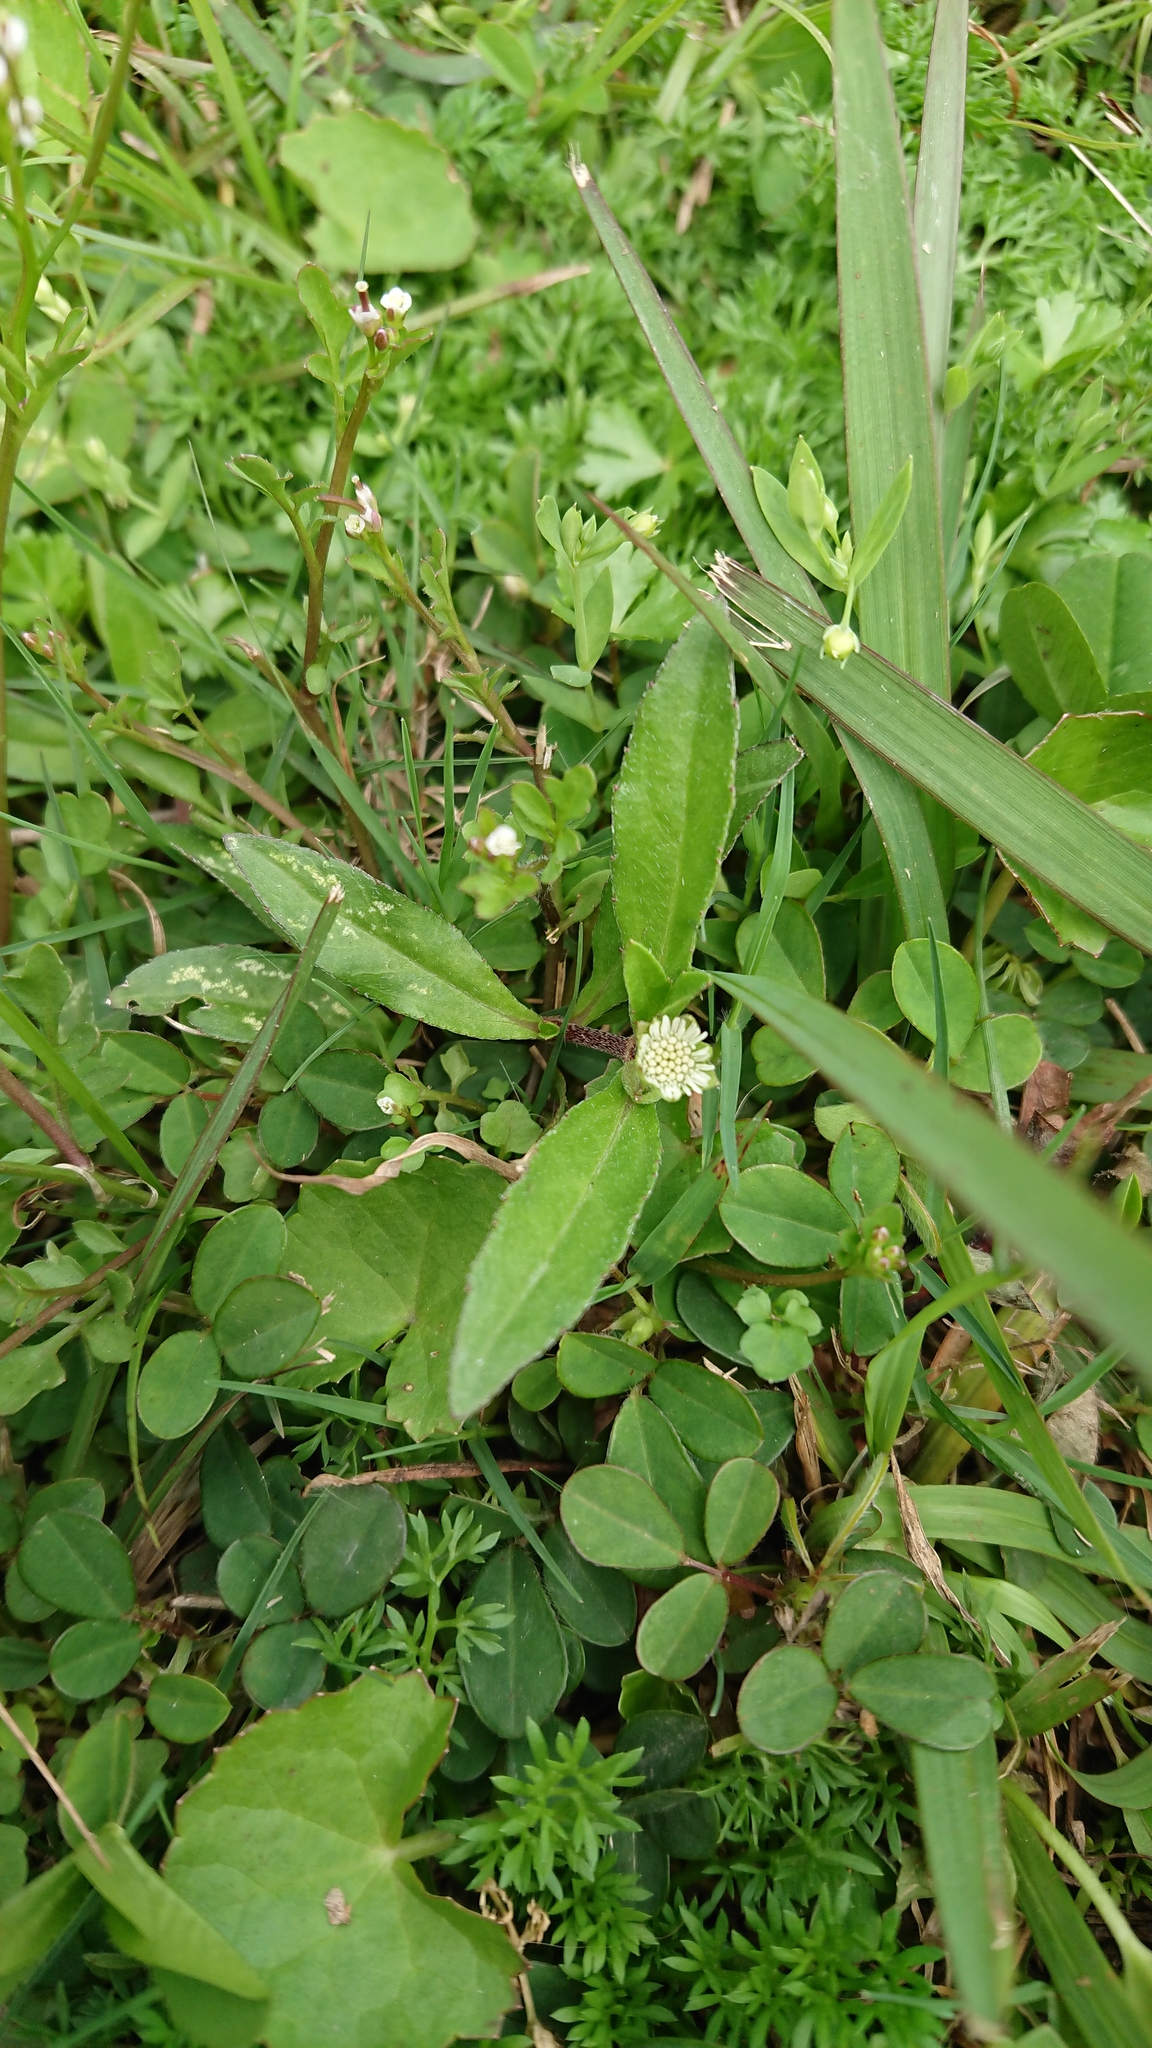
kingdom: Plantae
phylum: Tracheophyta
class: Magnoliopsida
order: Asterales
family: Asteraceae
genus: Eclipta
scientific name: Eclipta prostrata
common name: False daisy
